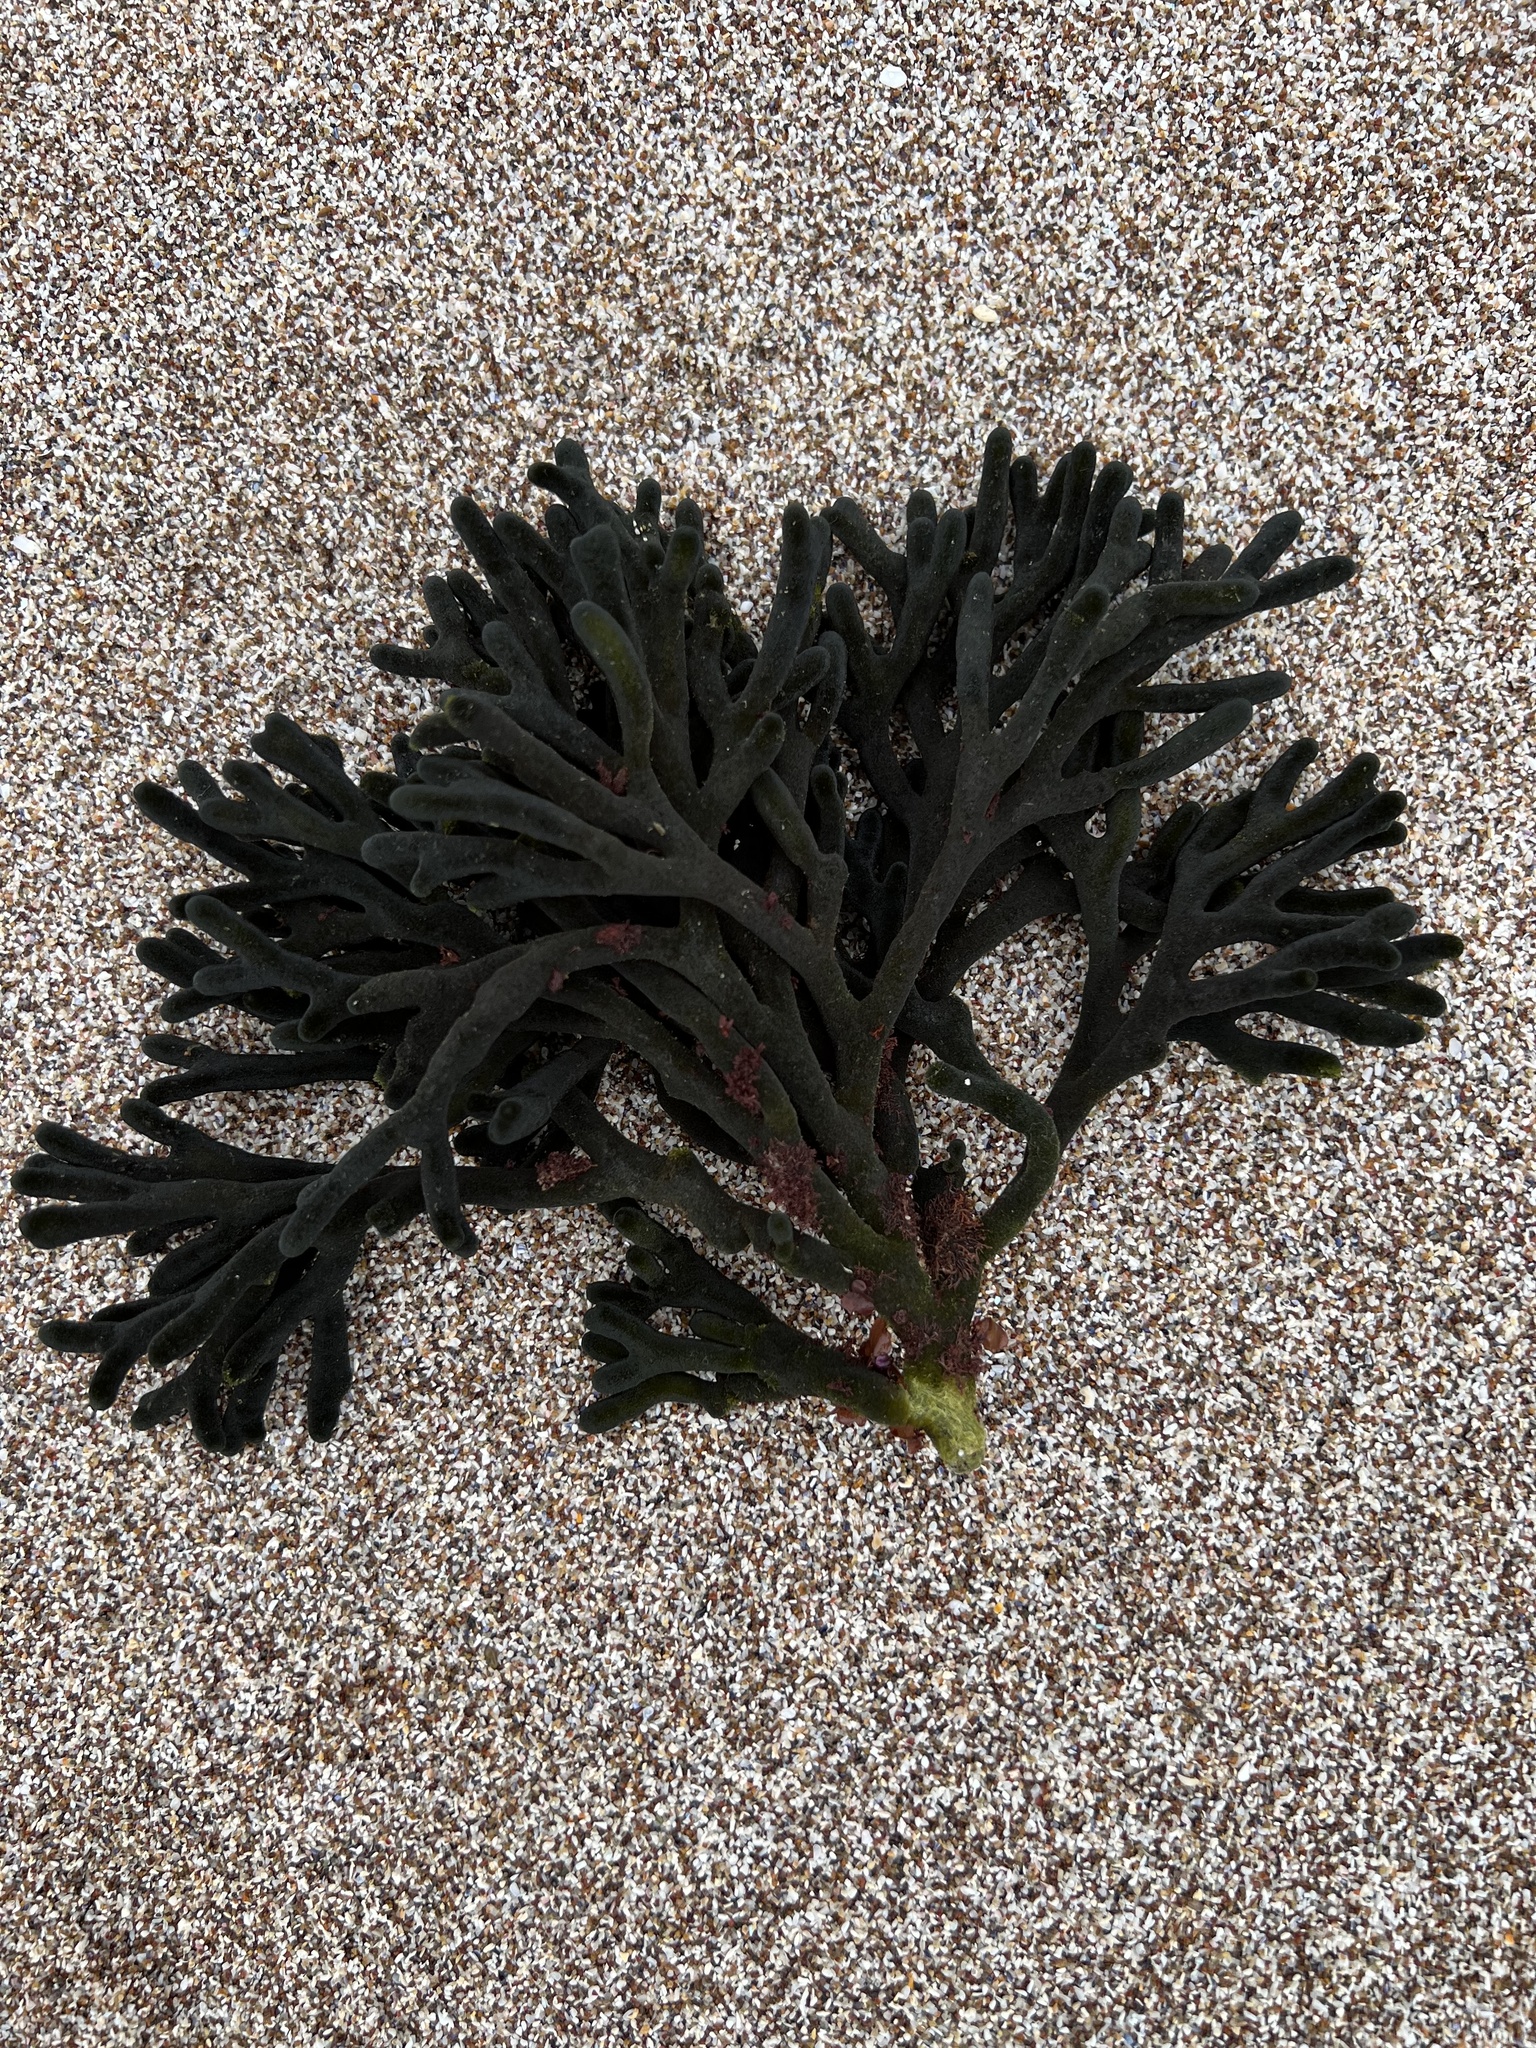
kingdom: Plantae
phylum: Chlorophyta
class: Ulvophyceae
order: Bryopsidales
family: Codiaceae
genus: Codium
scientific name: Codium fragile
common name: Dead man's fingers
